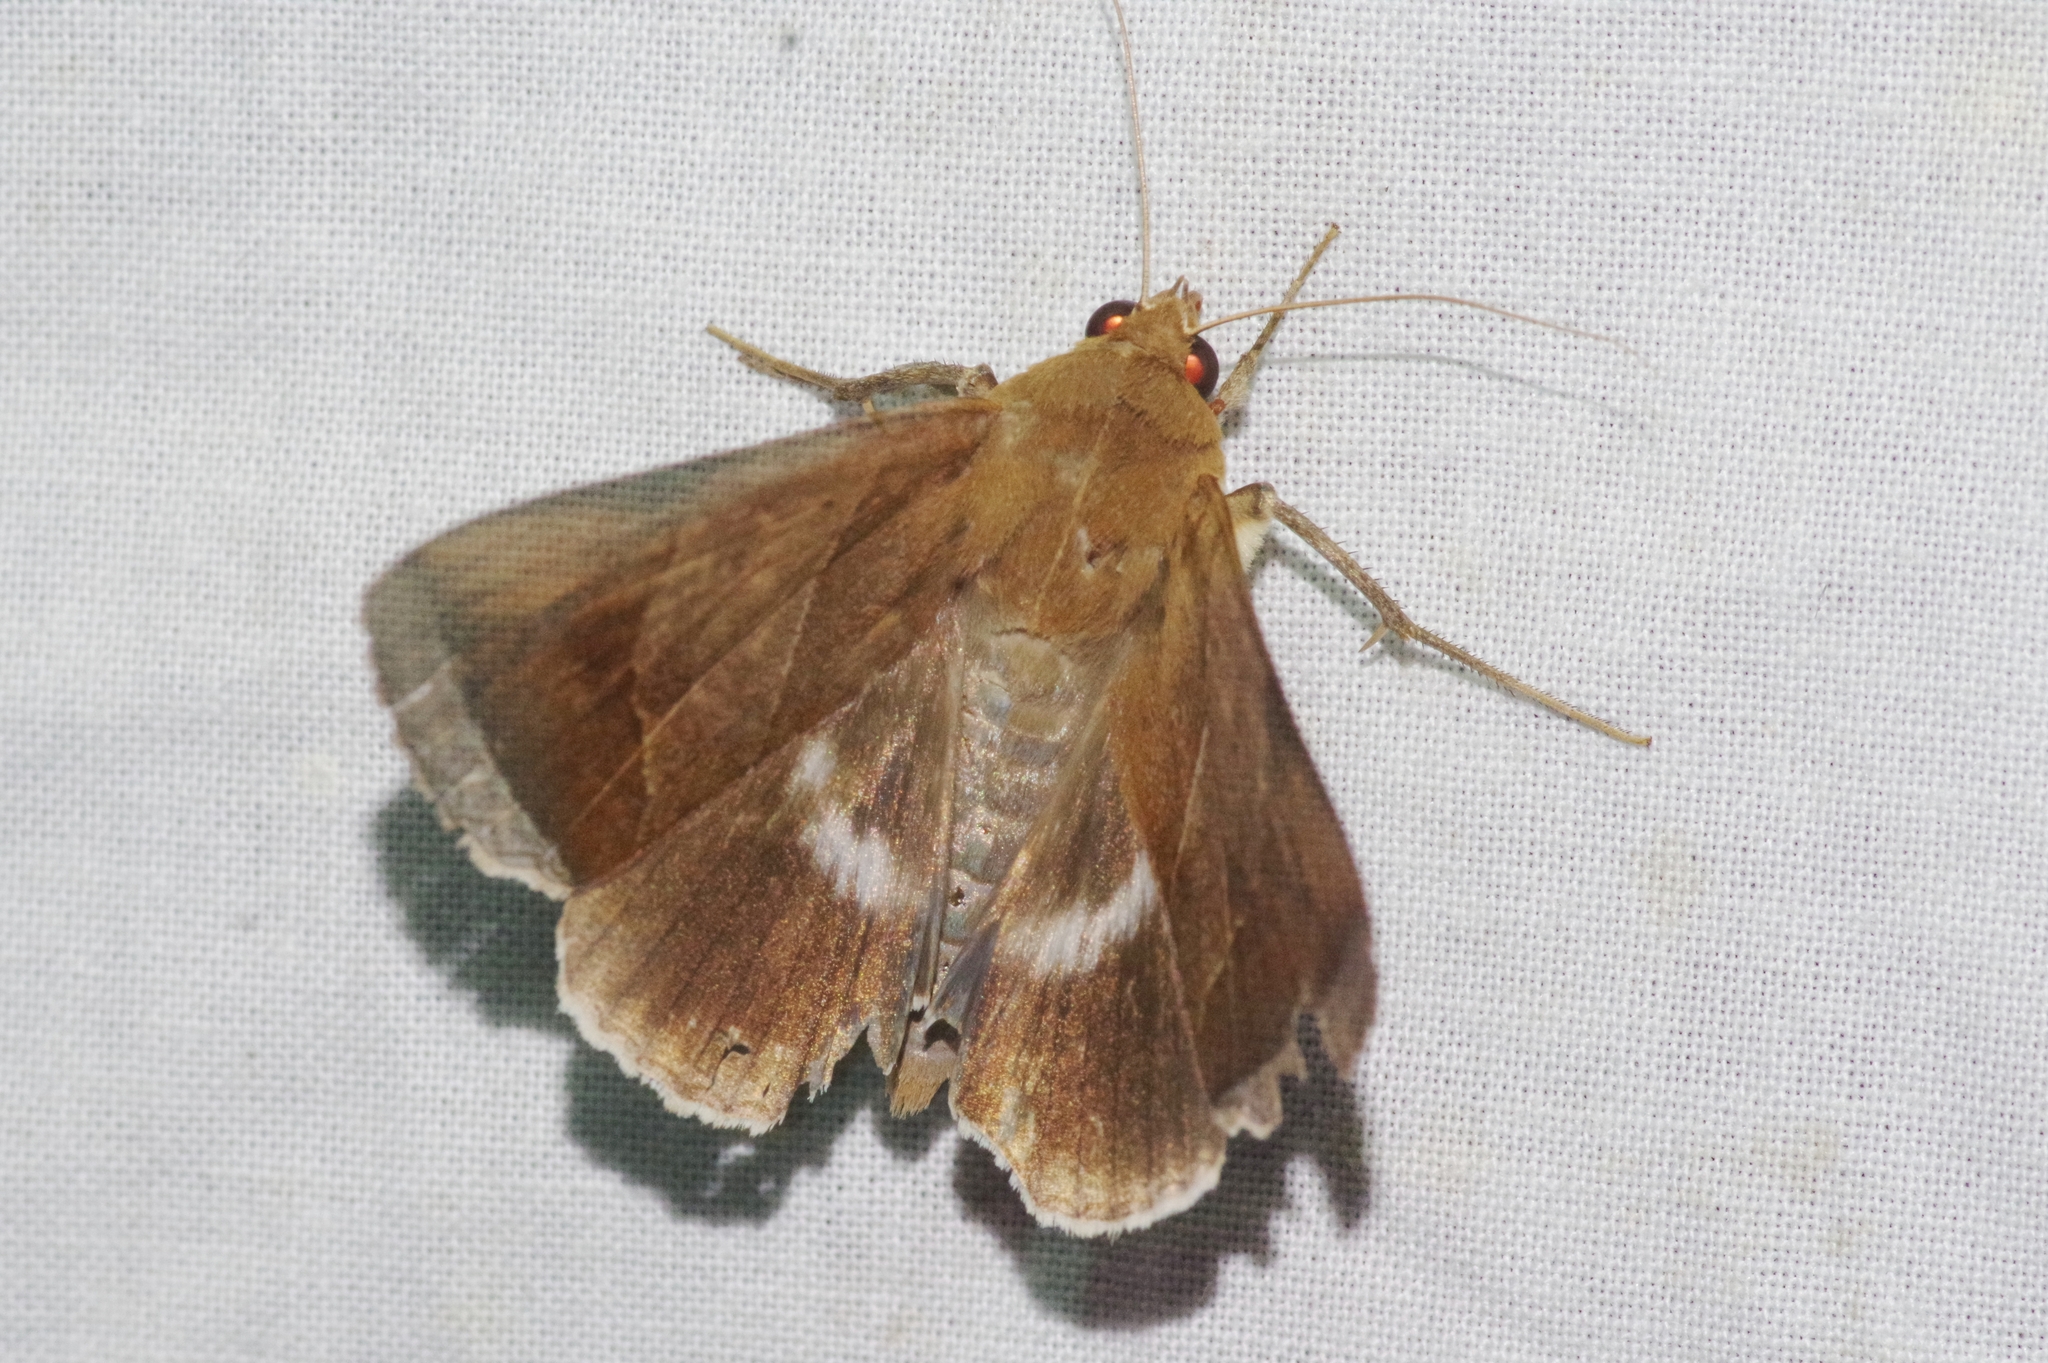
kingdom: Animalia
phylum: Arthropoda
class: Insecta
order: Lepidoptera
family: Erebidae
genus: Artena
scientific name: Artena dotata
